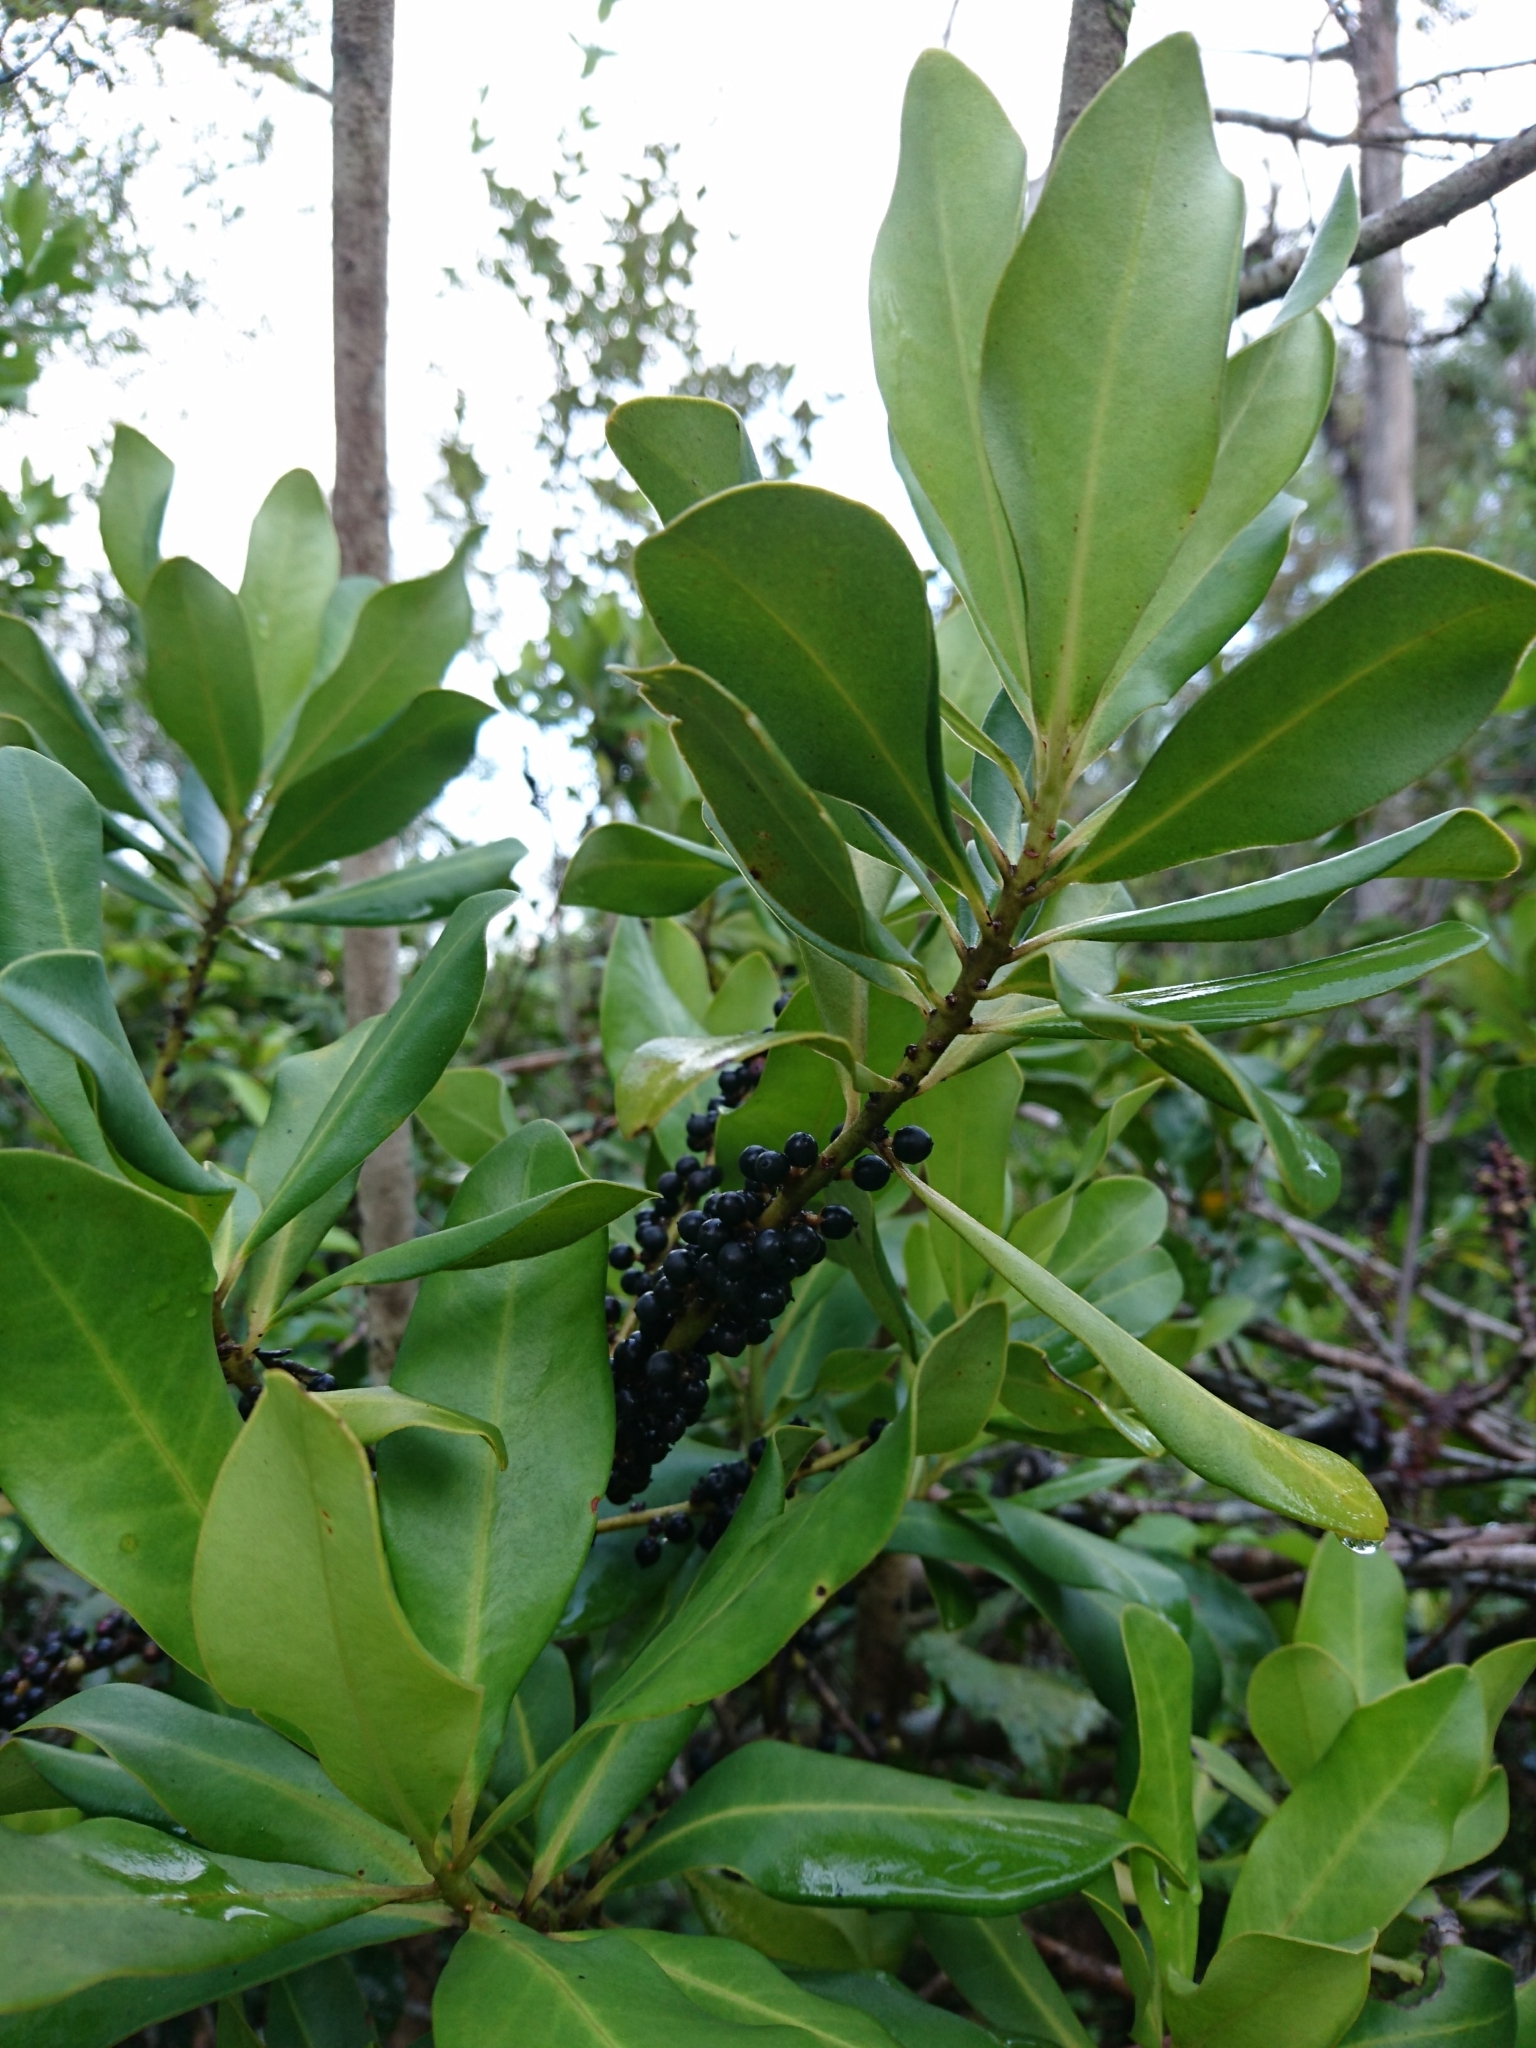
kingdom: Plantae
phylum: Tracheophyta
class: Magnoliopsida
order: Ericales
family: Primulaceae
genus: Myrsine
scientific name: Myrsine floridana
